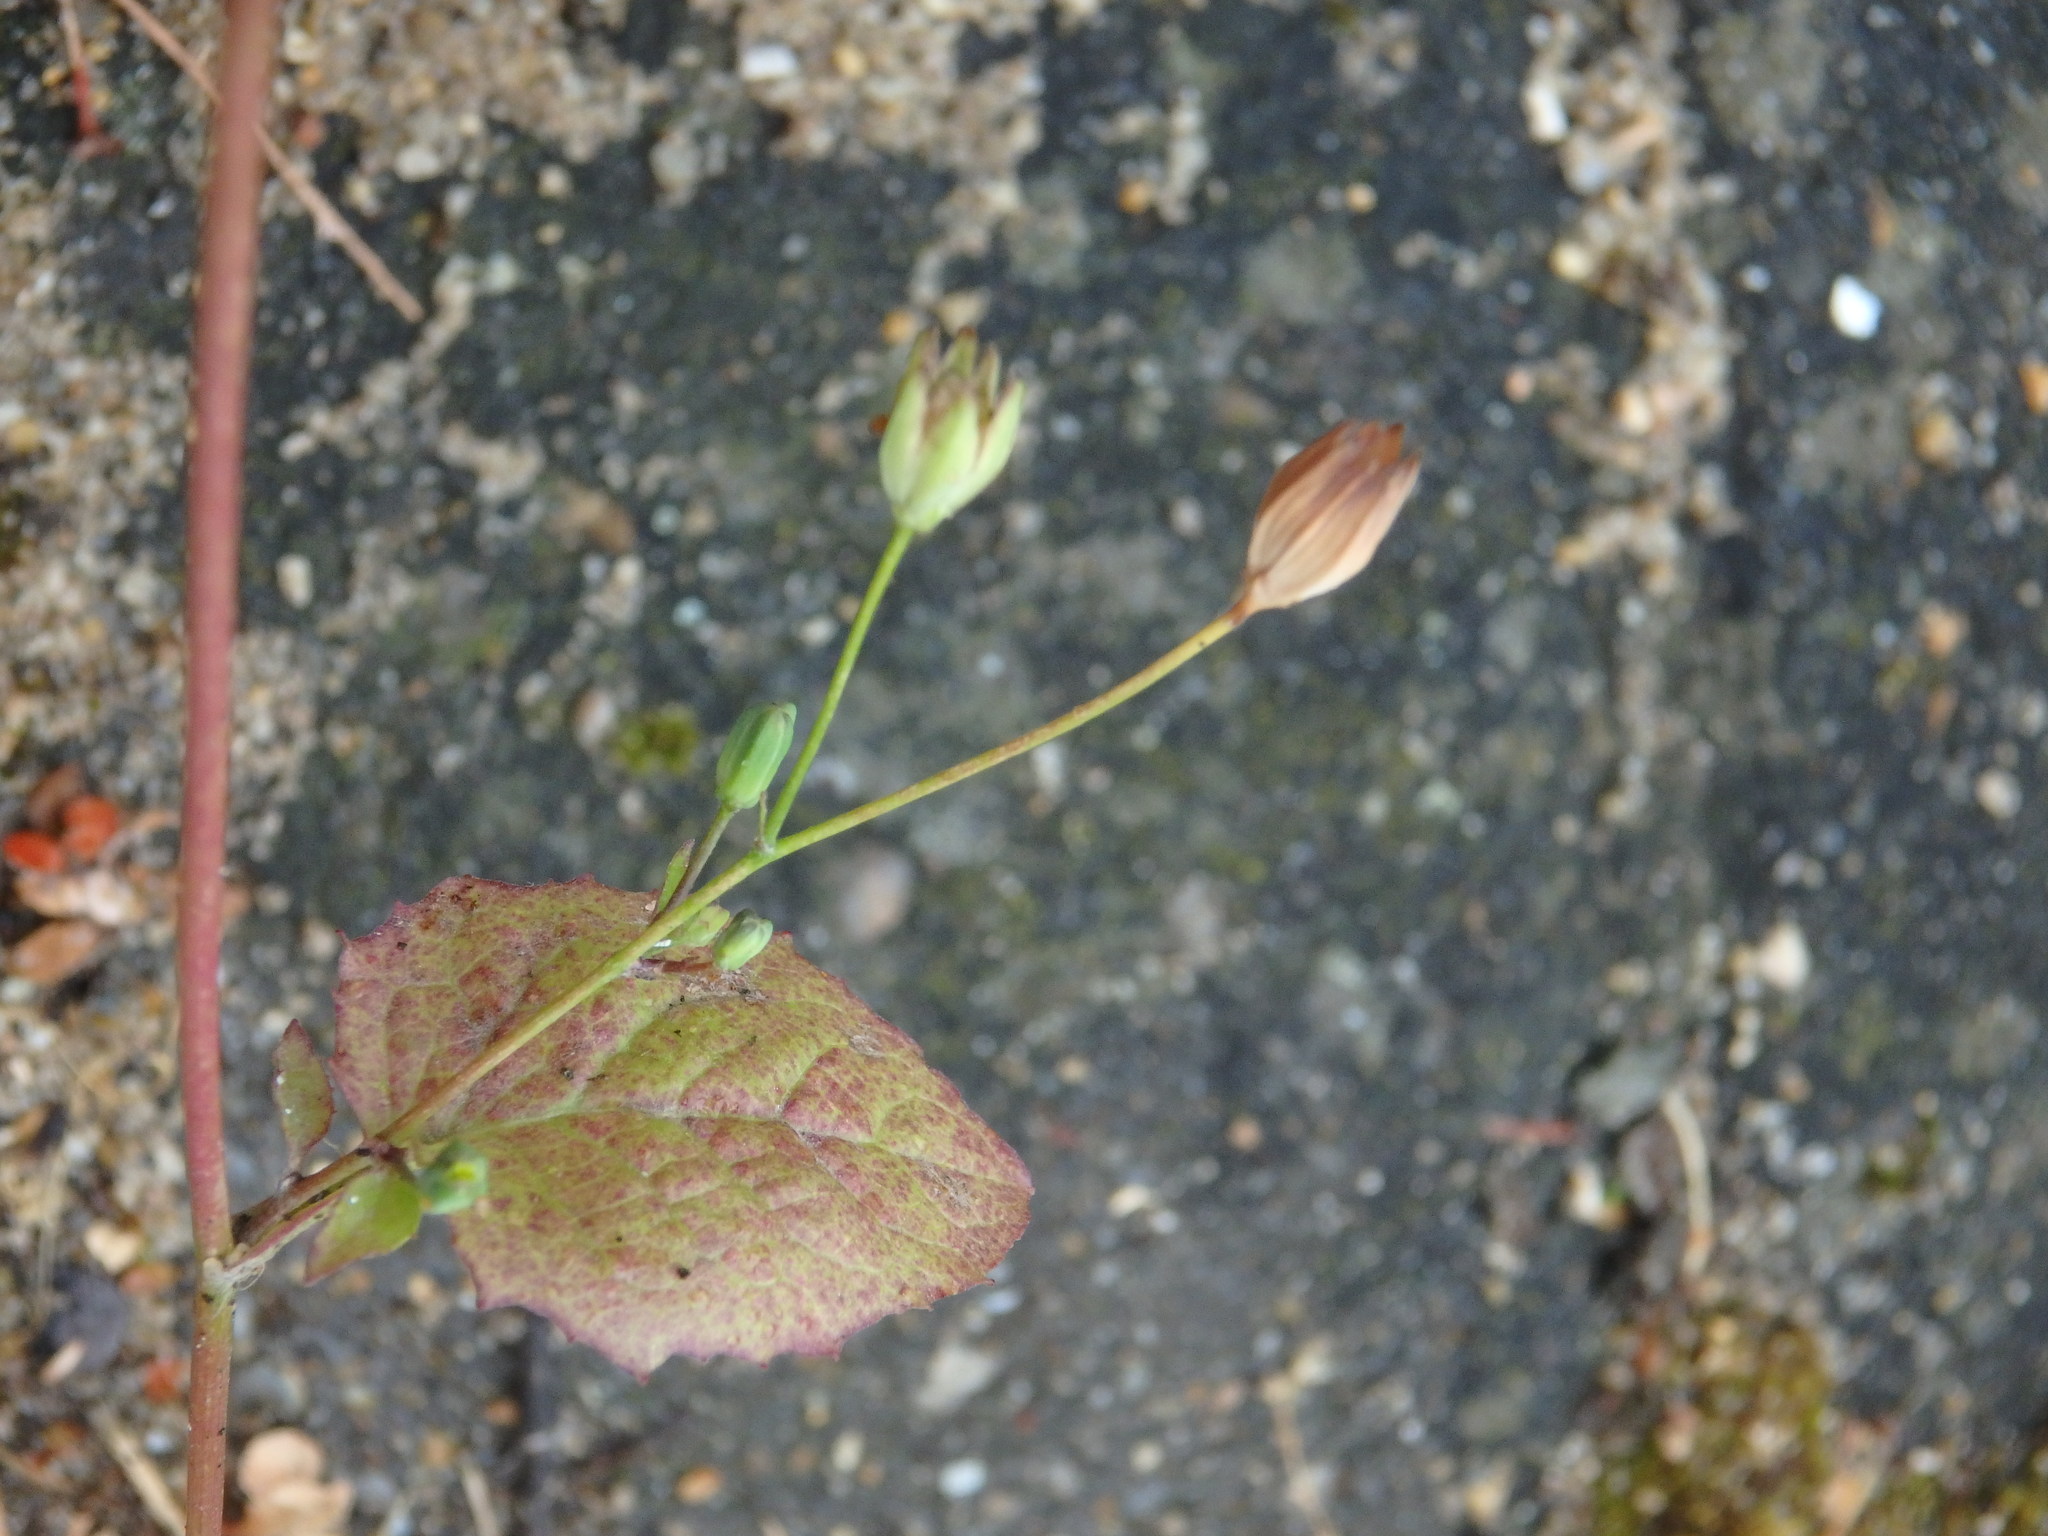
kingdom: Plantae
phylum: Tracheophyta
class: Magnoliopsida
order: Asterales
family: Asteraceae
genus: Lapsana
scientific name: Lapsana communis
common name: Nipplewort
